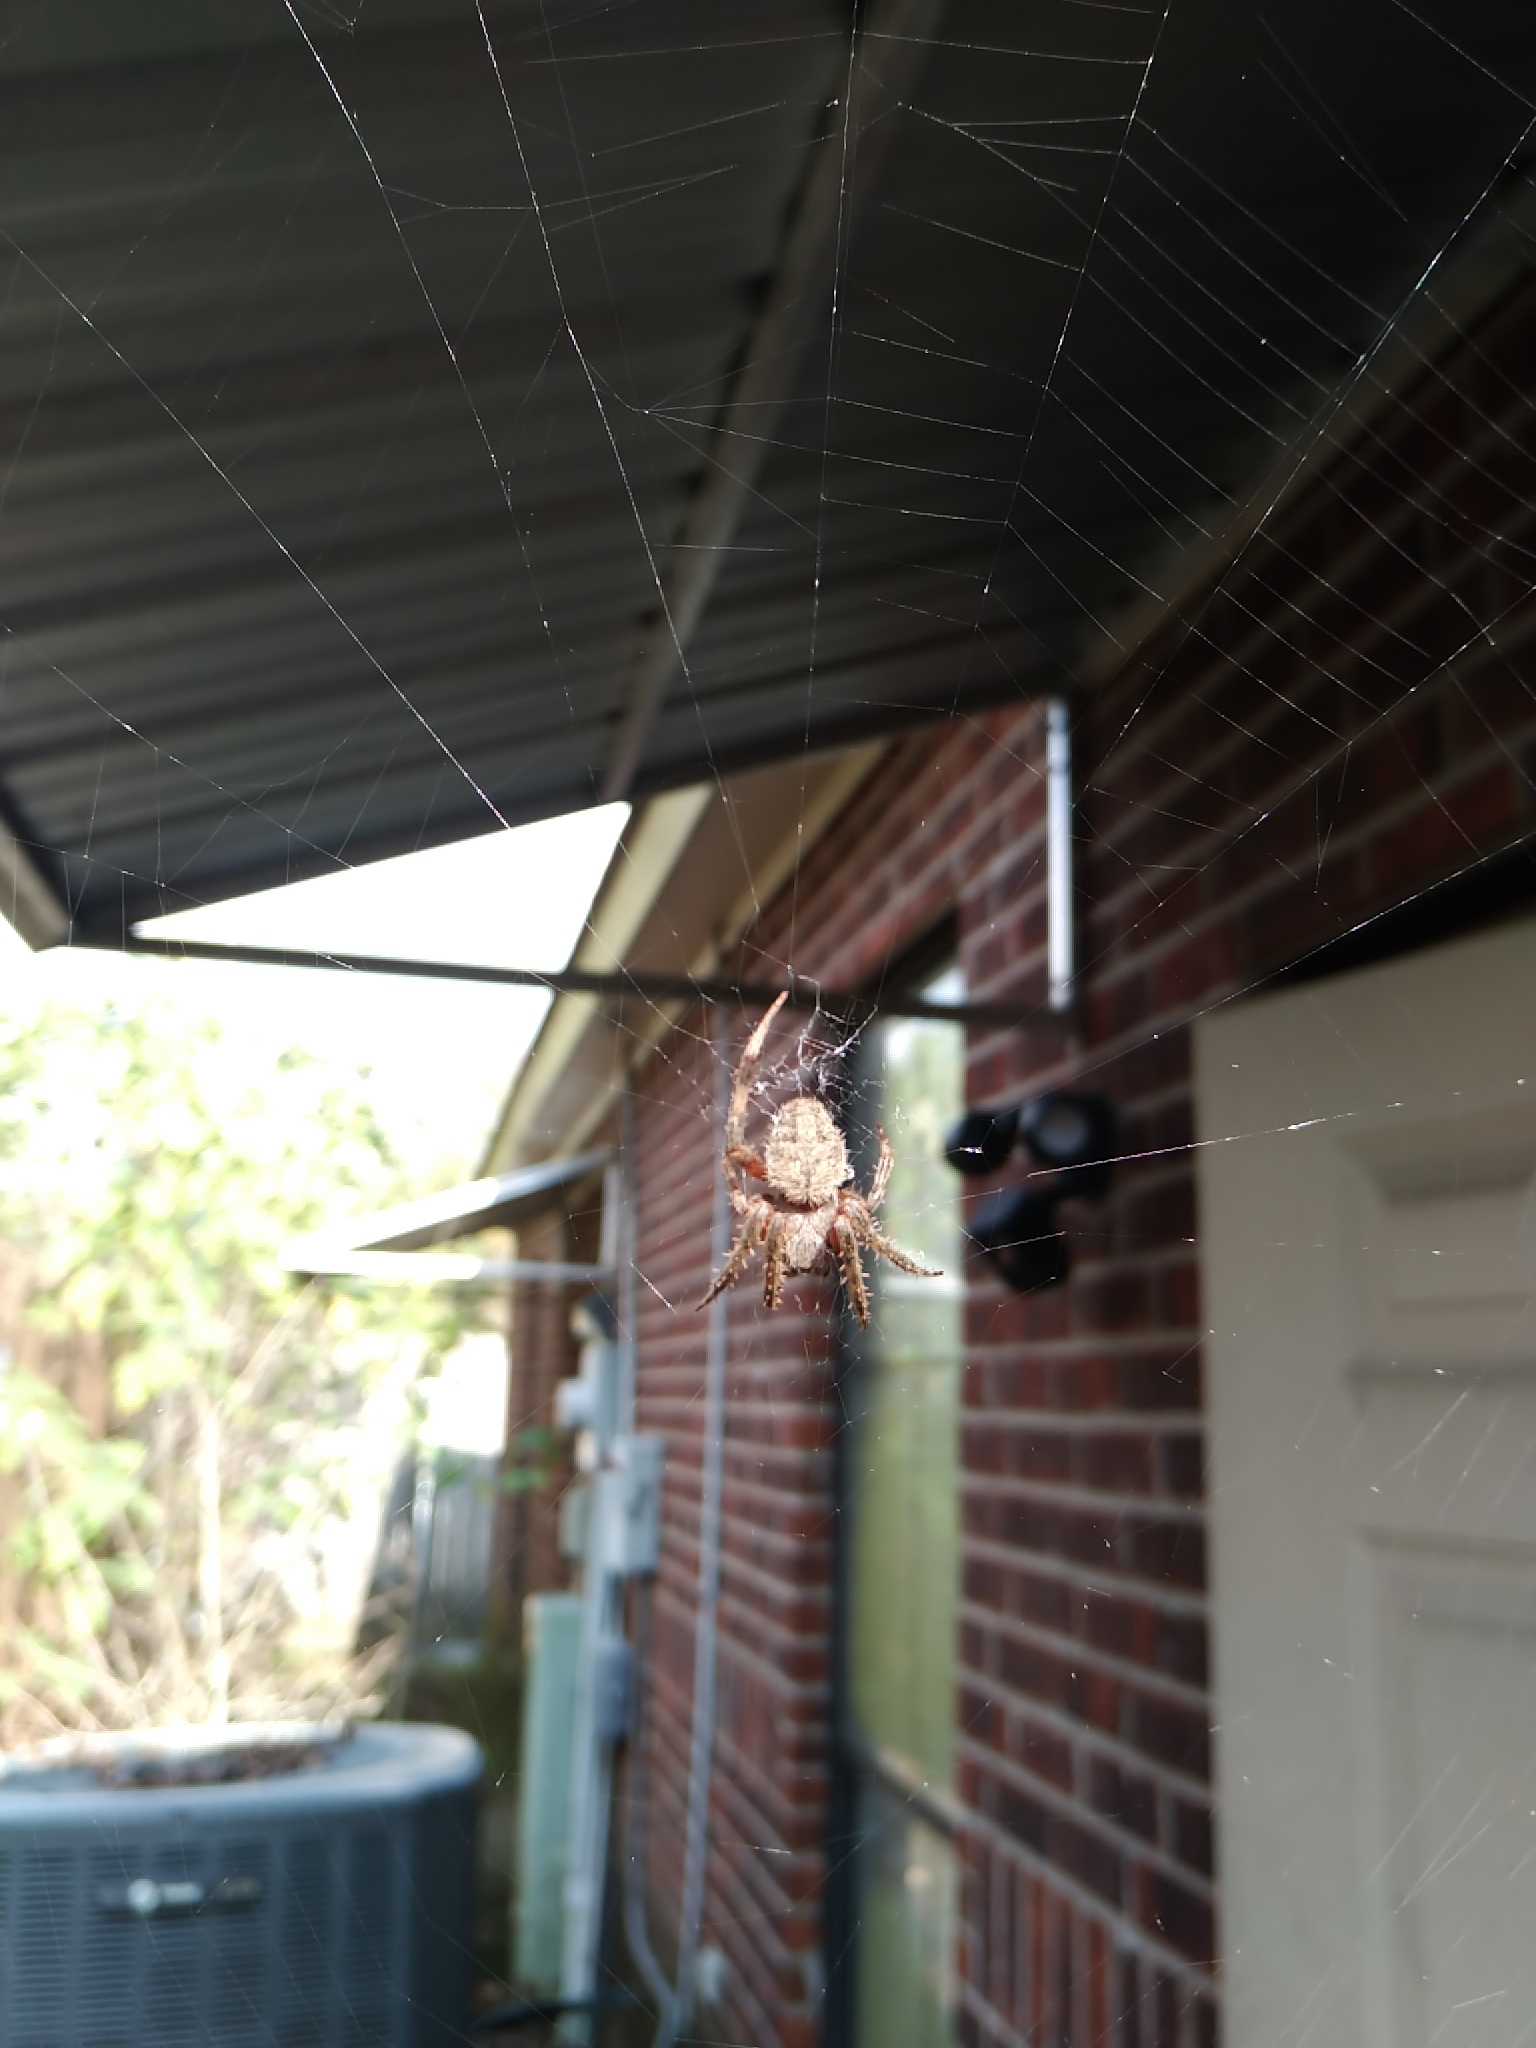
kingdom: Animalia
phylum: Arthropoda
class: Arachnida
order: Araneae
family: Araneidae
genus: Neoscona
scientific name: Neoscona crucifera
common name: Spotted orbweaver
